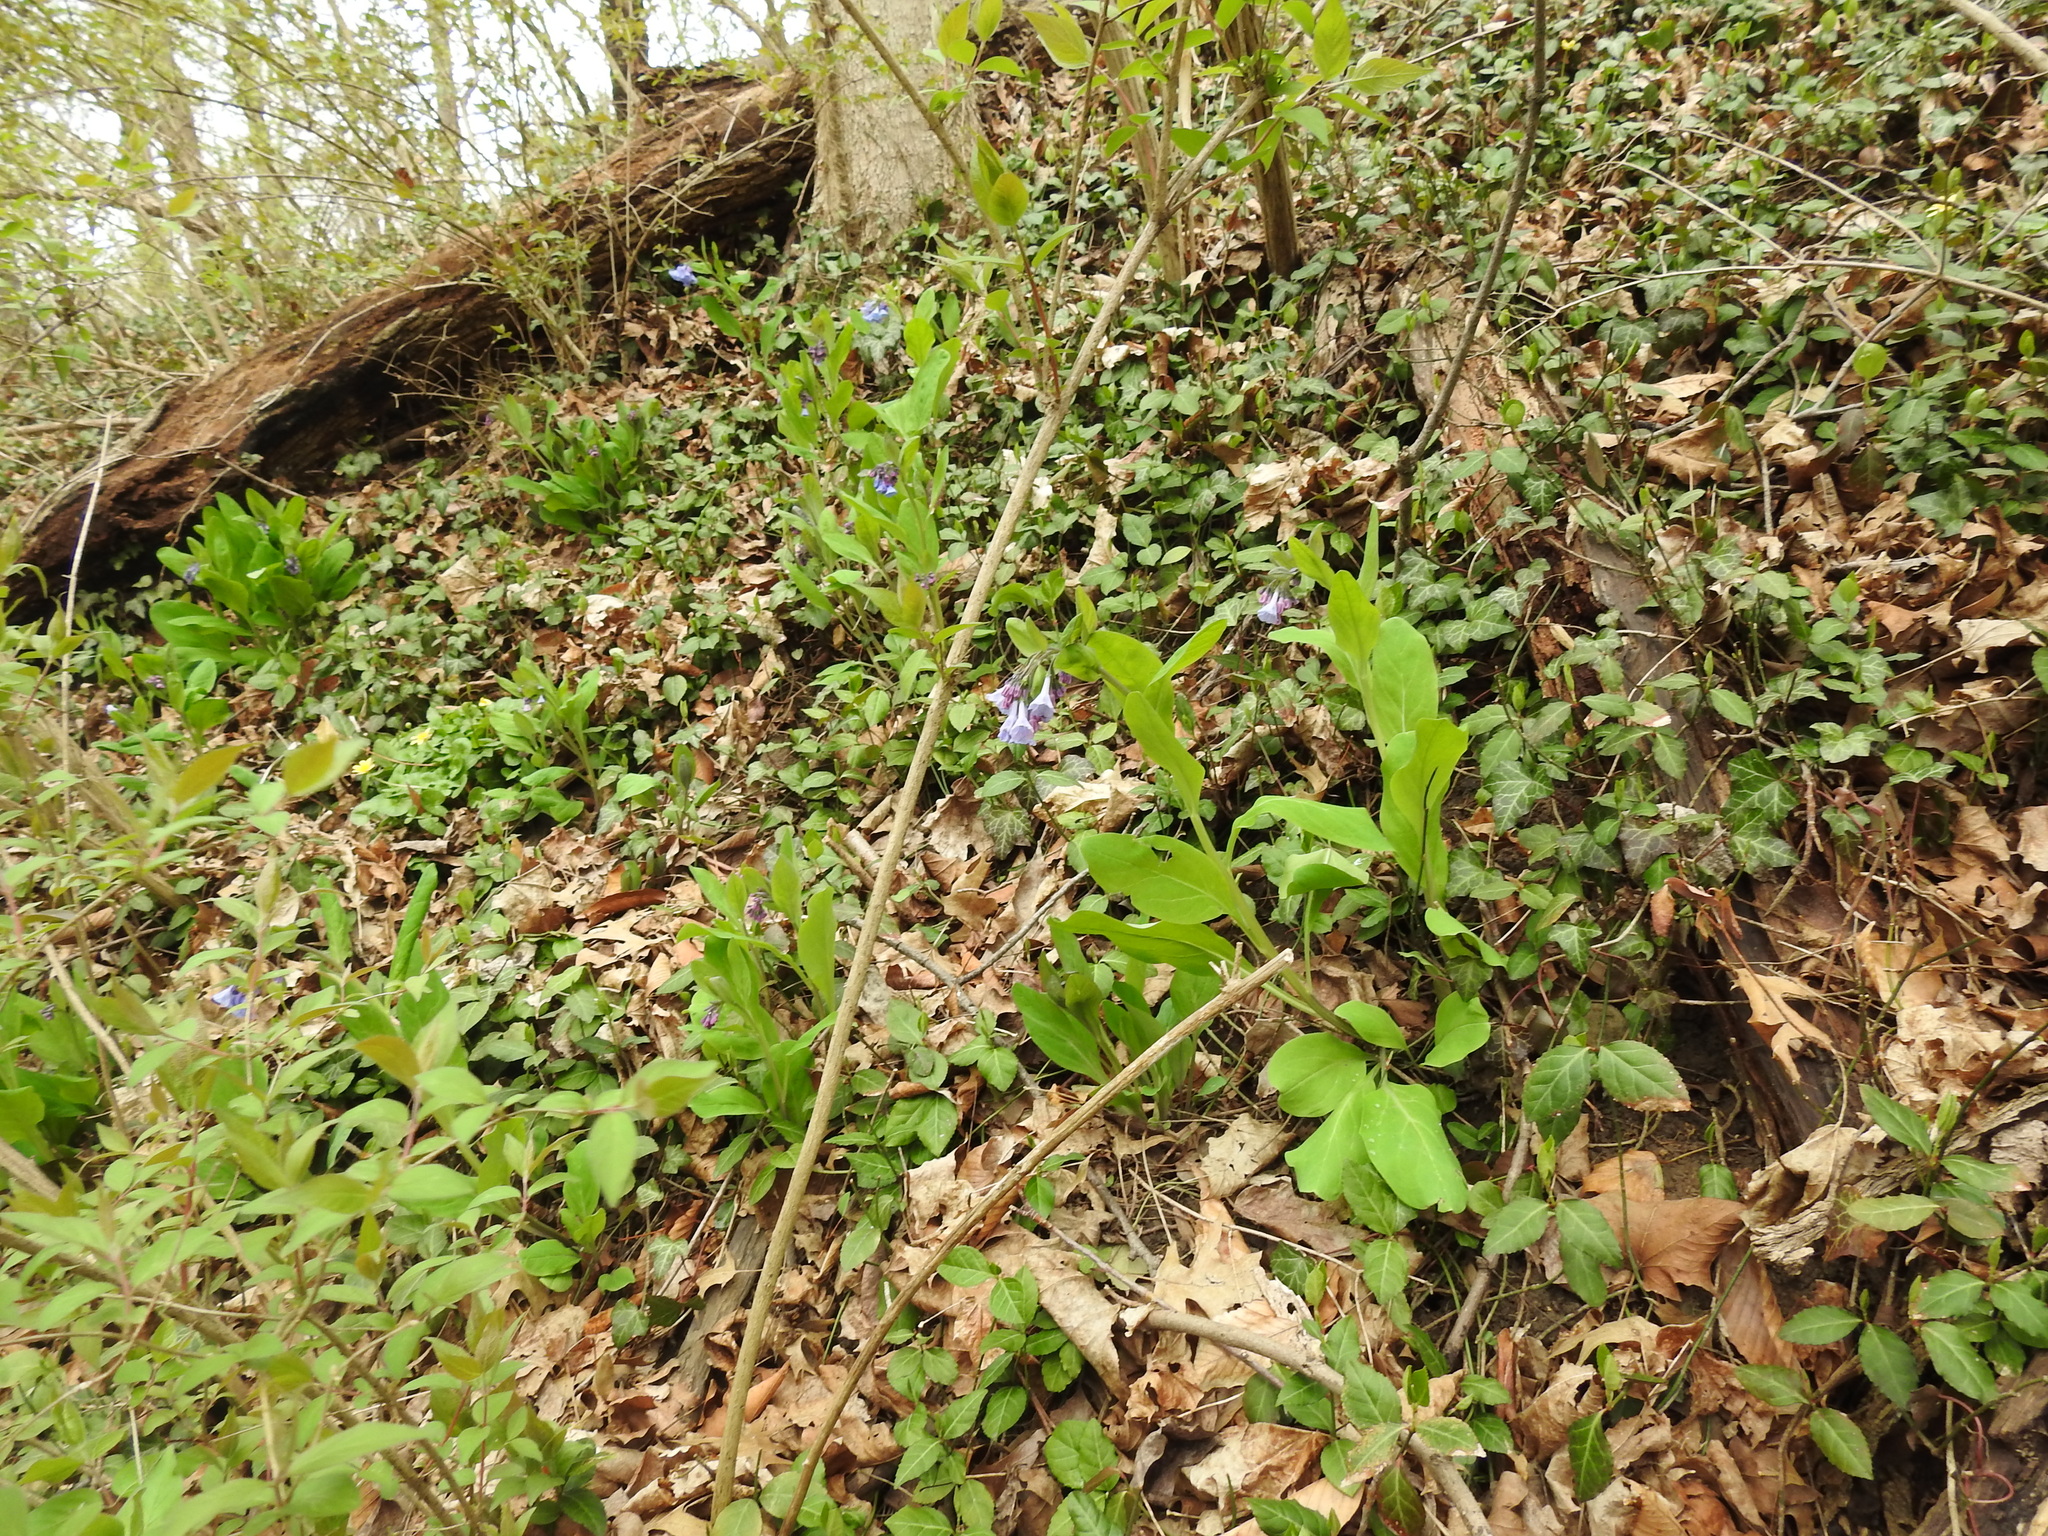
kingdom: Plantae
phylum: Tracheophyta
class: Magnoliopsida
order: Boraginales
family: Boraginaceae
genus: Mertensia
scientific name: Mertensia virginica
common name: Virginia bluebells
